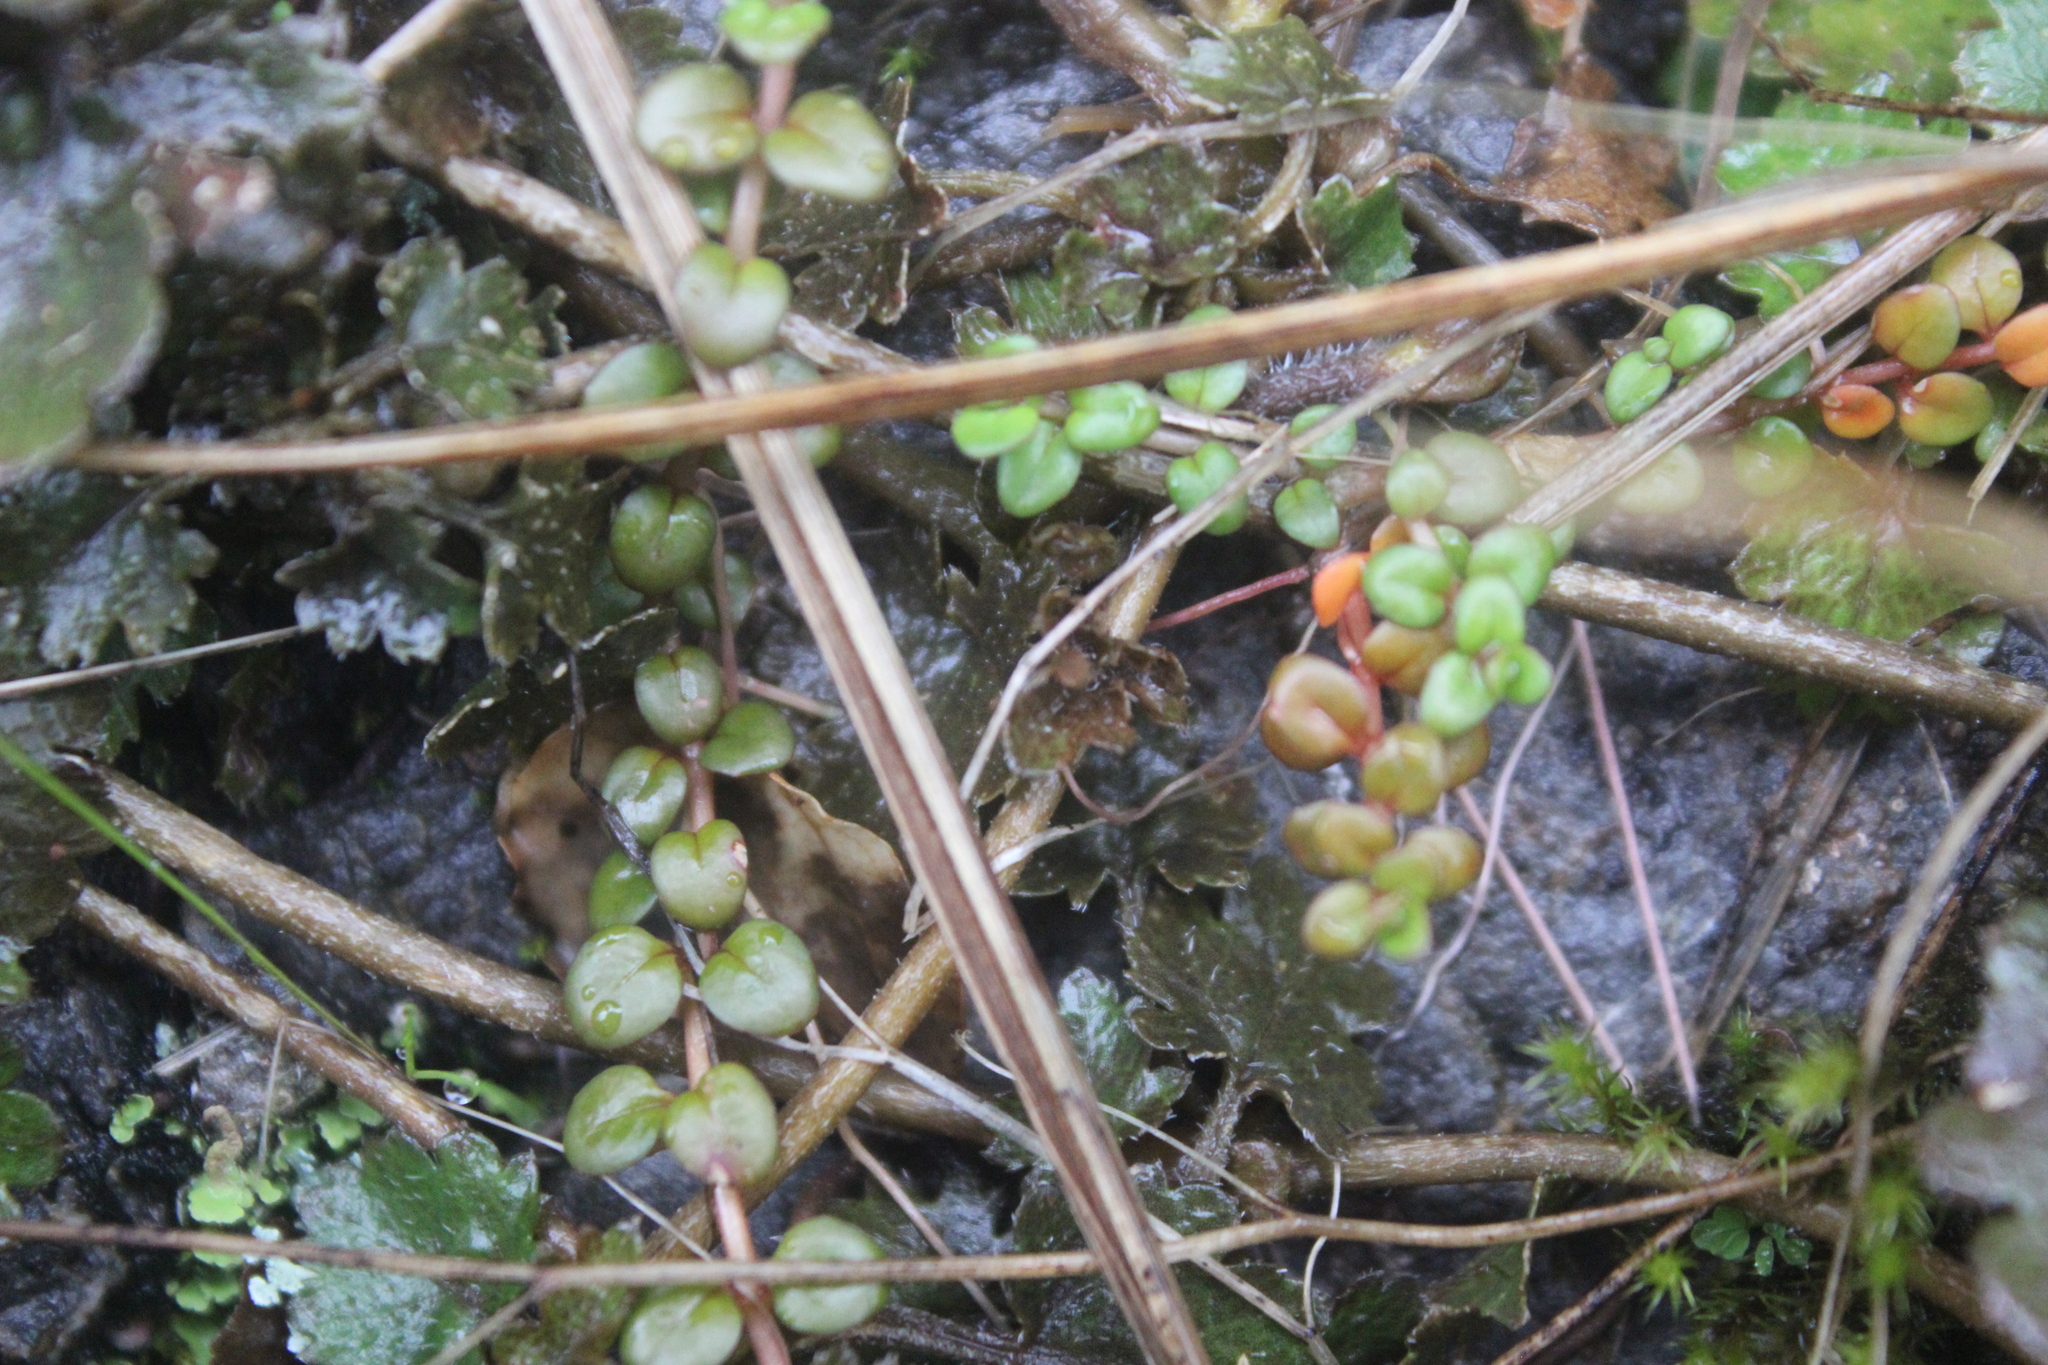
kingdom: Plantae
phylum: Tracheophyta
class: Magnoliopsida
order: Myrtales
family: Onagraceae
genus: Epilobium
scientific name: Epilobium brunnescens
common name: New zealand willowherb
